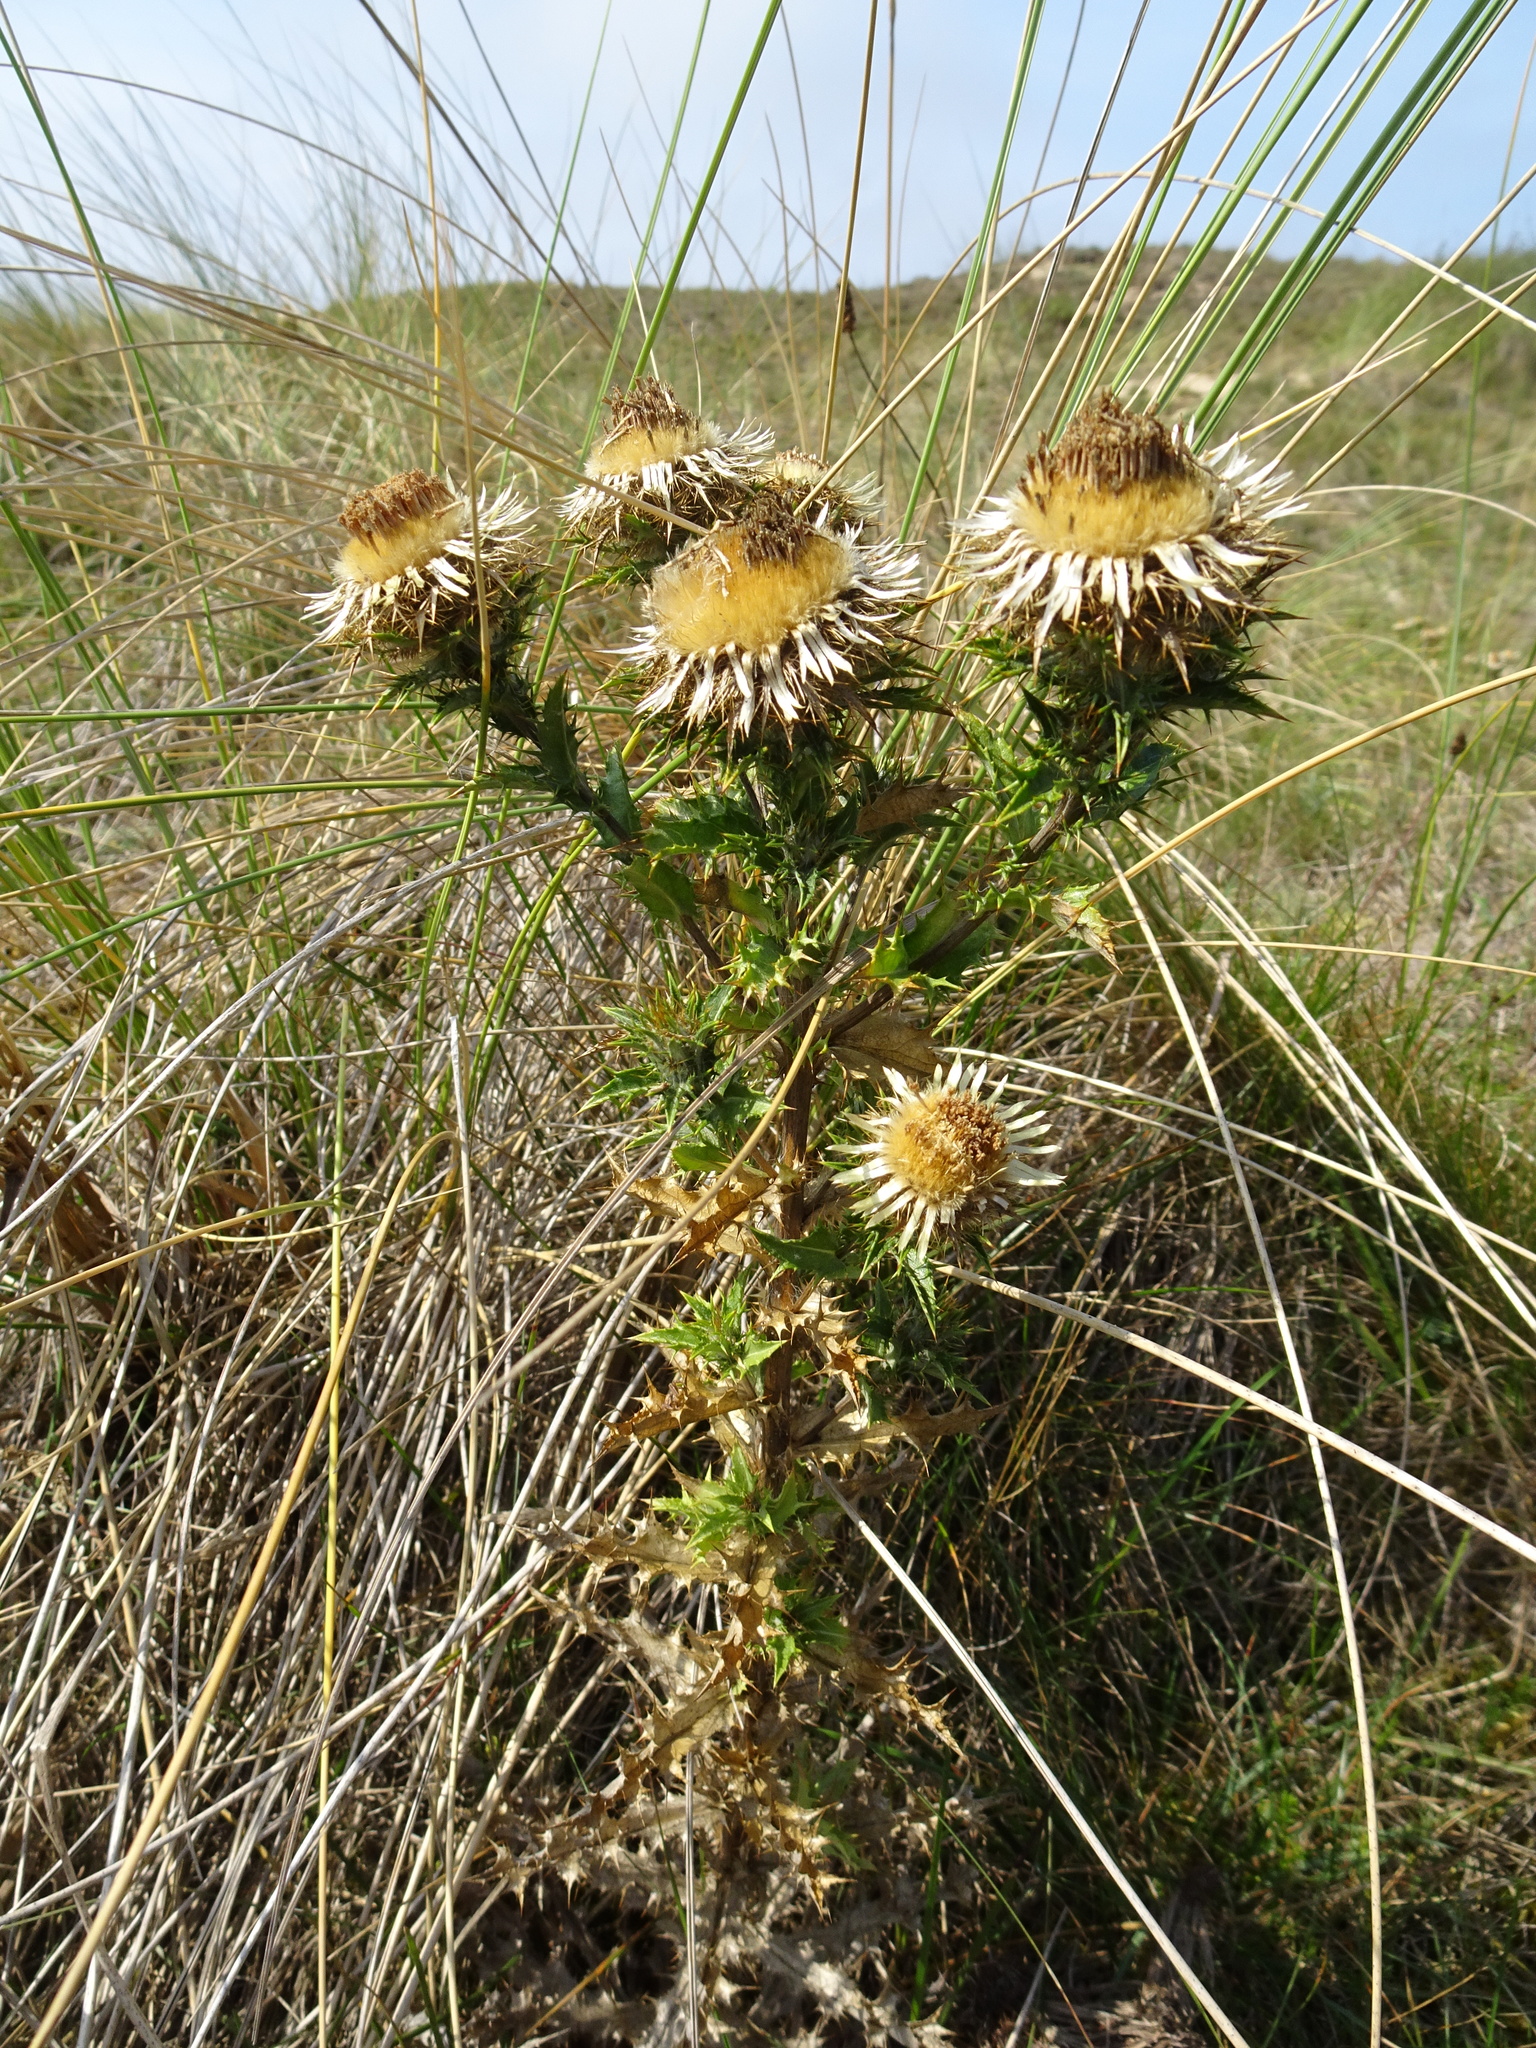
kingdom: Plantae
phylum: Tracheophyta
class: Magnoliopsida
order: Asterales
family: Asteraceae
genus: Carlina
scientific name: Carlina vulgaris
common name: Carline thistle
